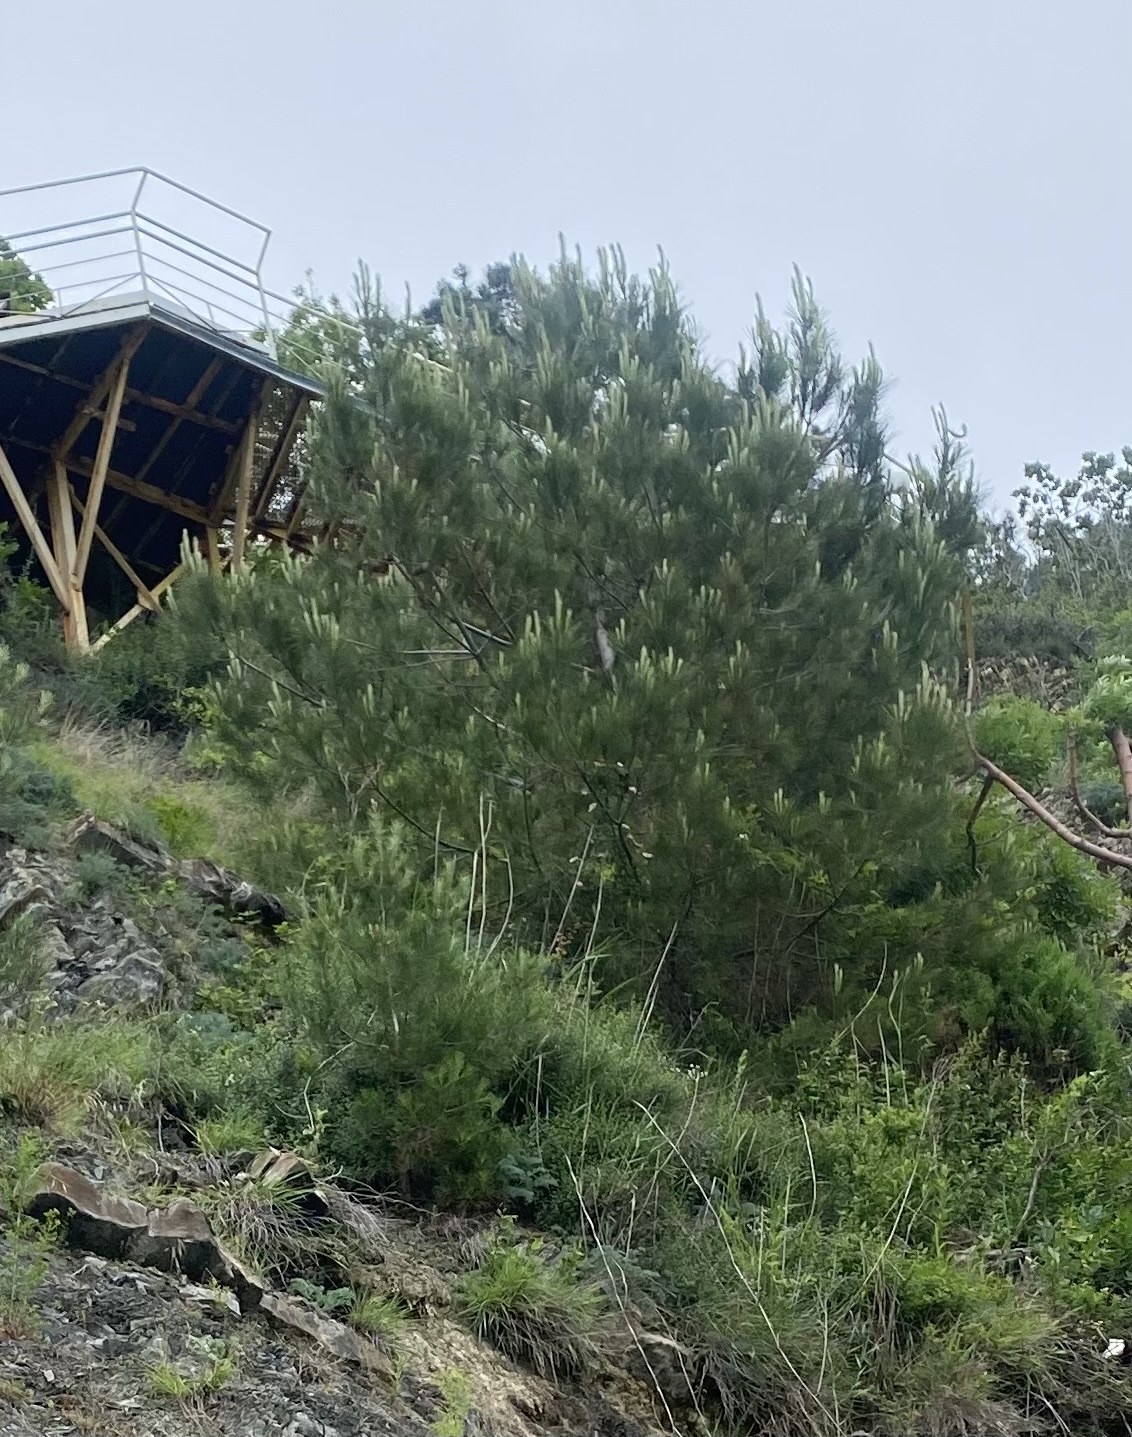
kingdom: Plantae
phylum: Tracheophyta
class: Pinopsida
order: Pinales
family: Pinaceae
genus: Pinus
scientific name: Pinus brutia
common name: Turkish pine
